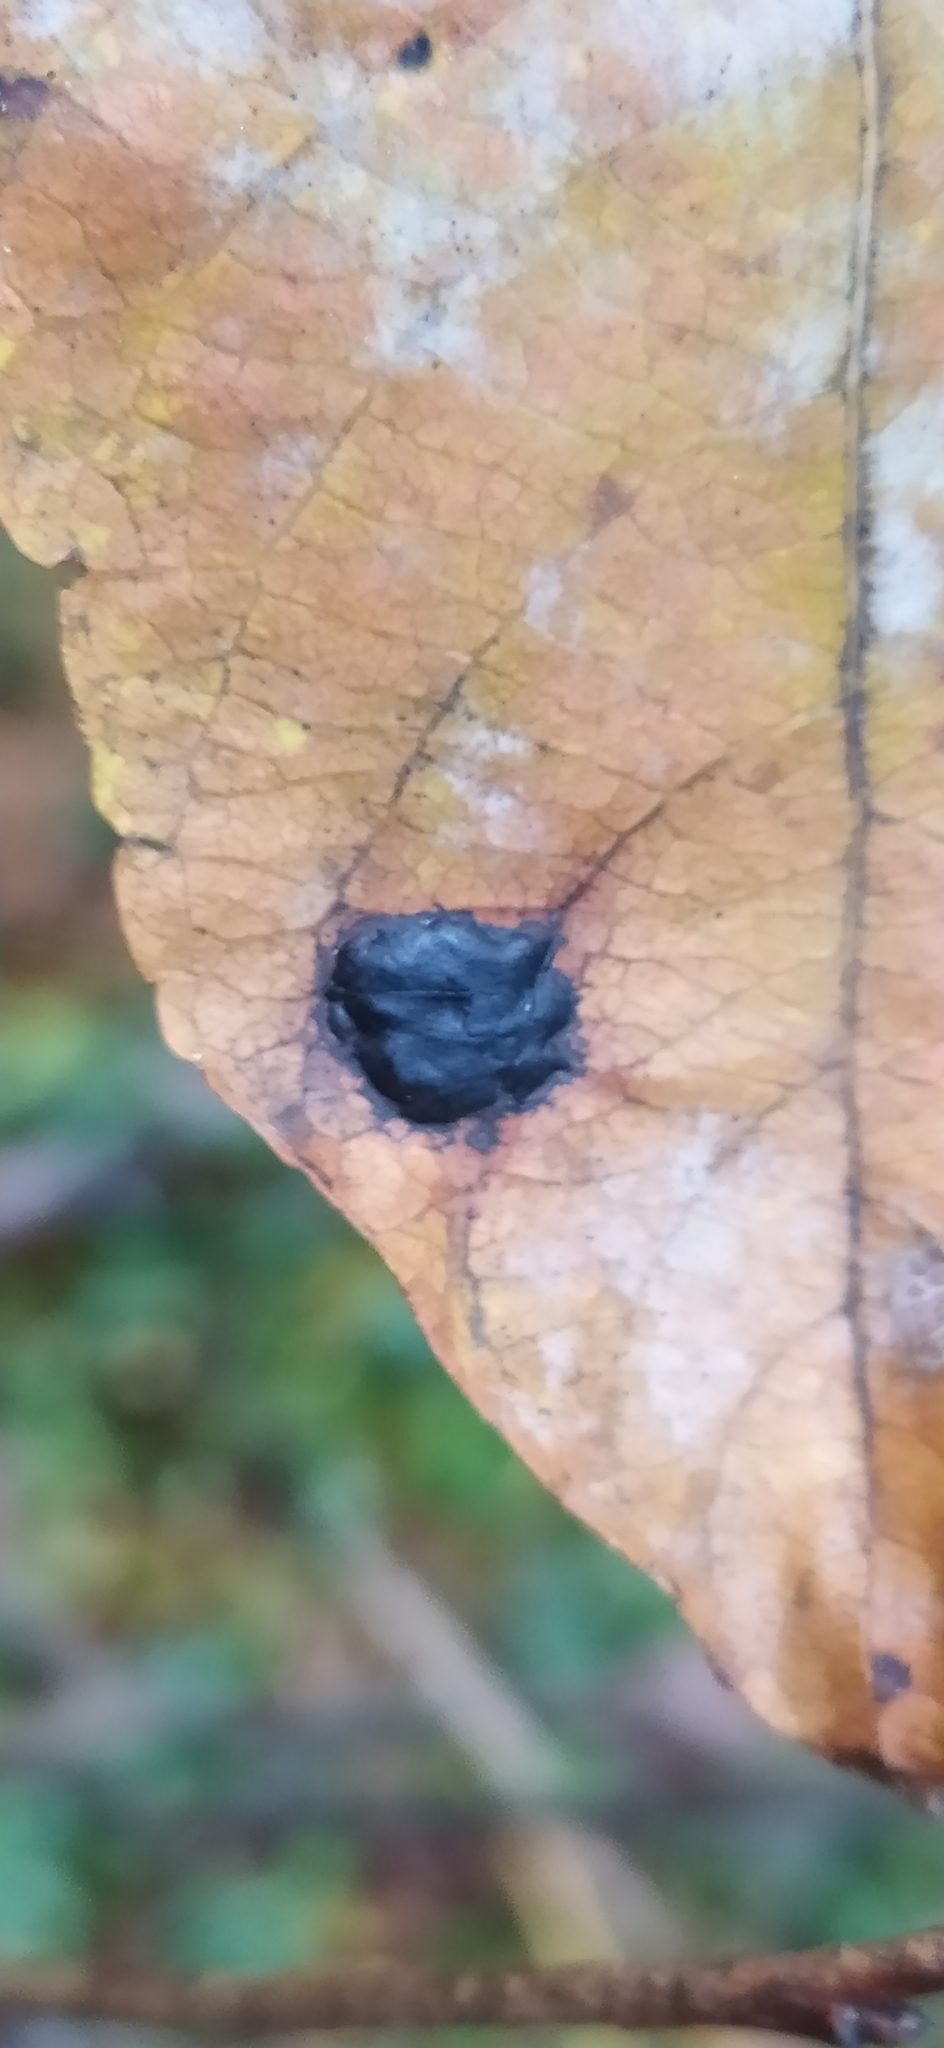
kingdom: Fungi
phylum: Ascomycota
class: Leotiomycetes
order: Rhytismatales
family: Rhytismataceae
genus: Rhytisma
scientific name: Rhytisma salicinum
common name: Willow tarspot
